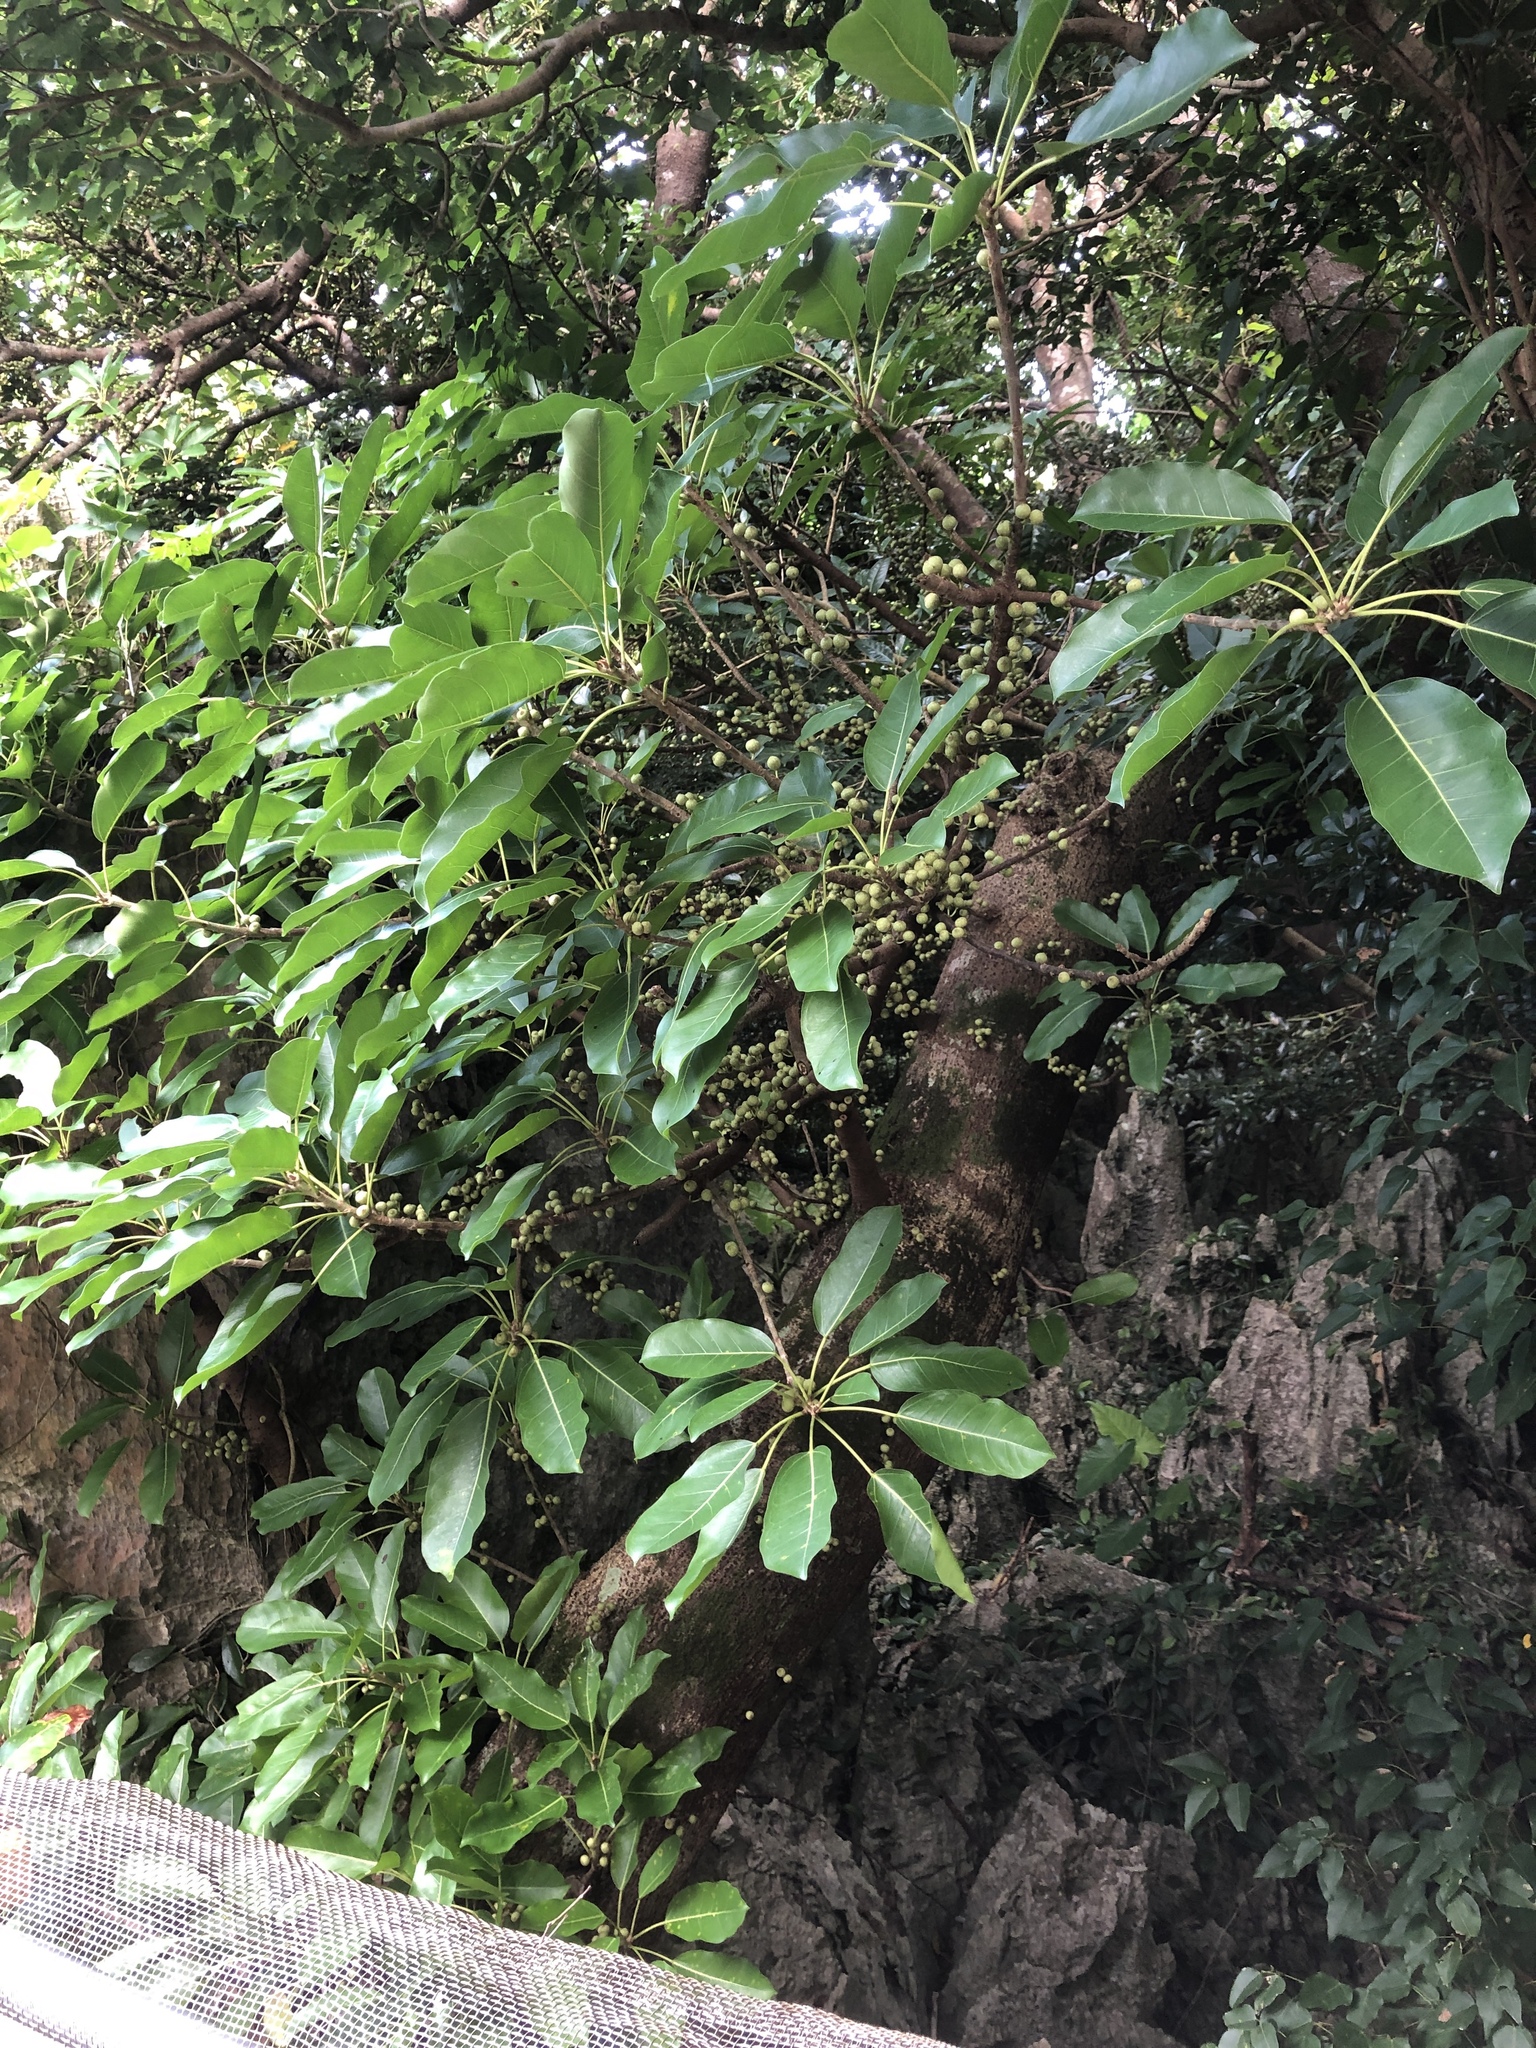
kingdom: Plantae
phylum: Tracheophyta
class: Magnoliopsida
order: Rosales
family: Moraceae
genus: Ficus
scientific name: Ficus subpisocarpa
